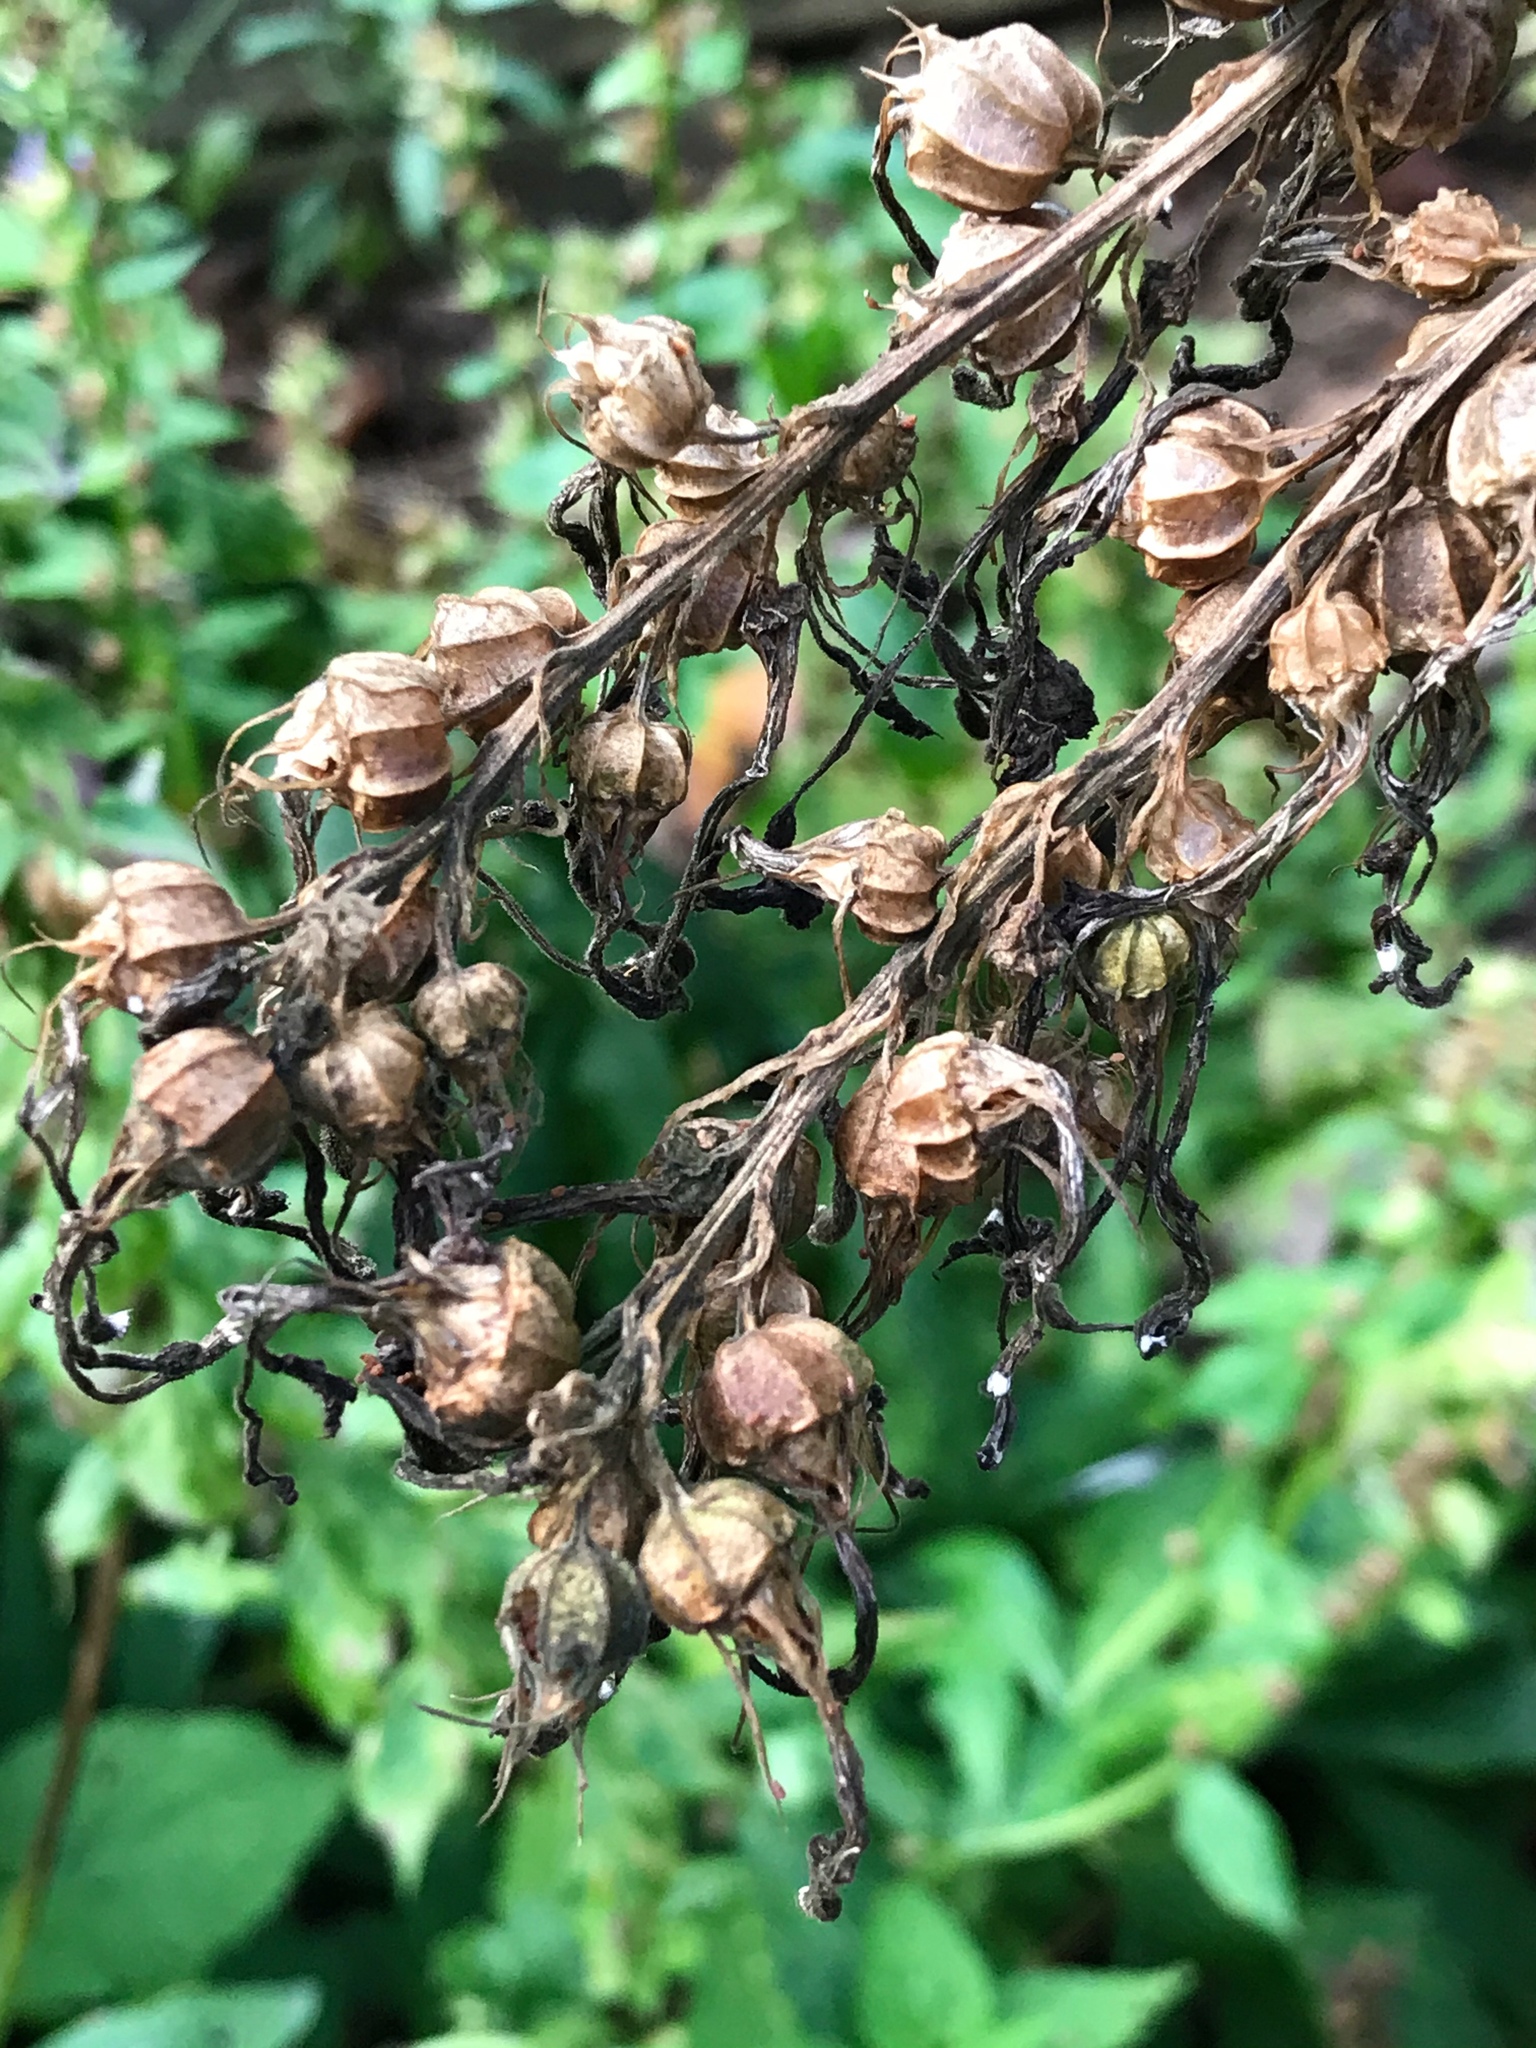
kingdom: Plantae
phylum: Tracheophyta
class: Magnoliopsida
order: Asterales
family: Campanulaceae
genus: Lobelia
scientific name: Lobelia cardinalis
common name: Cardinal flower
